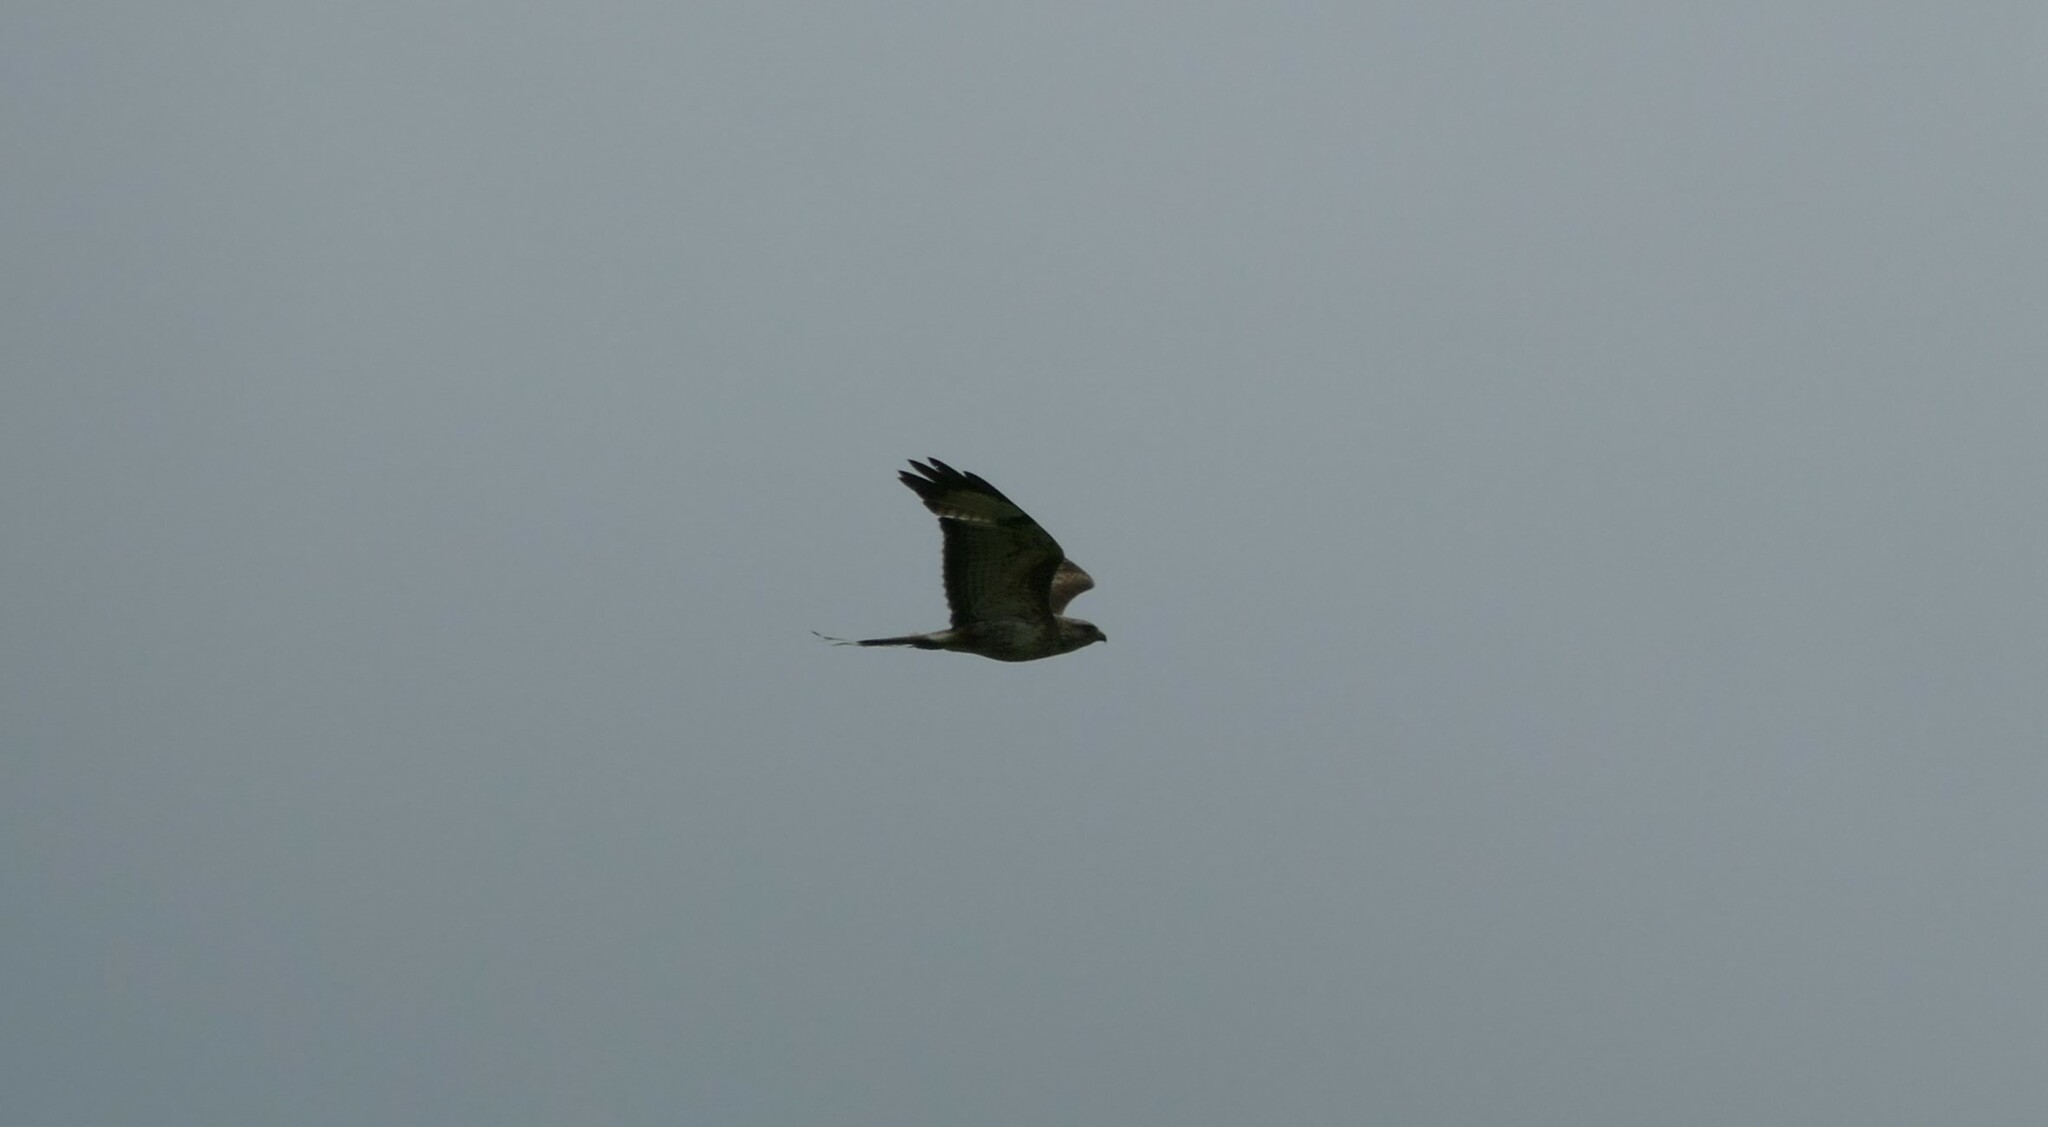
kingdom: Animalia
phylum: Chordata
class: Aves
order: Accipitriformes
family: Accipitridae
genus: Buteo
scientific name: Buteo buteo
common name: Common buzzard
